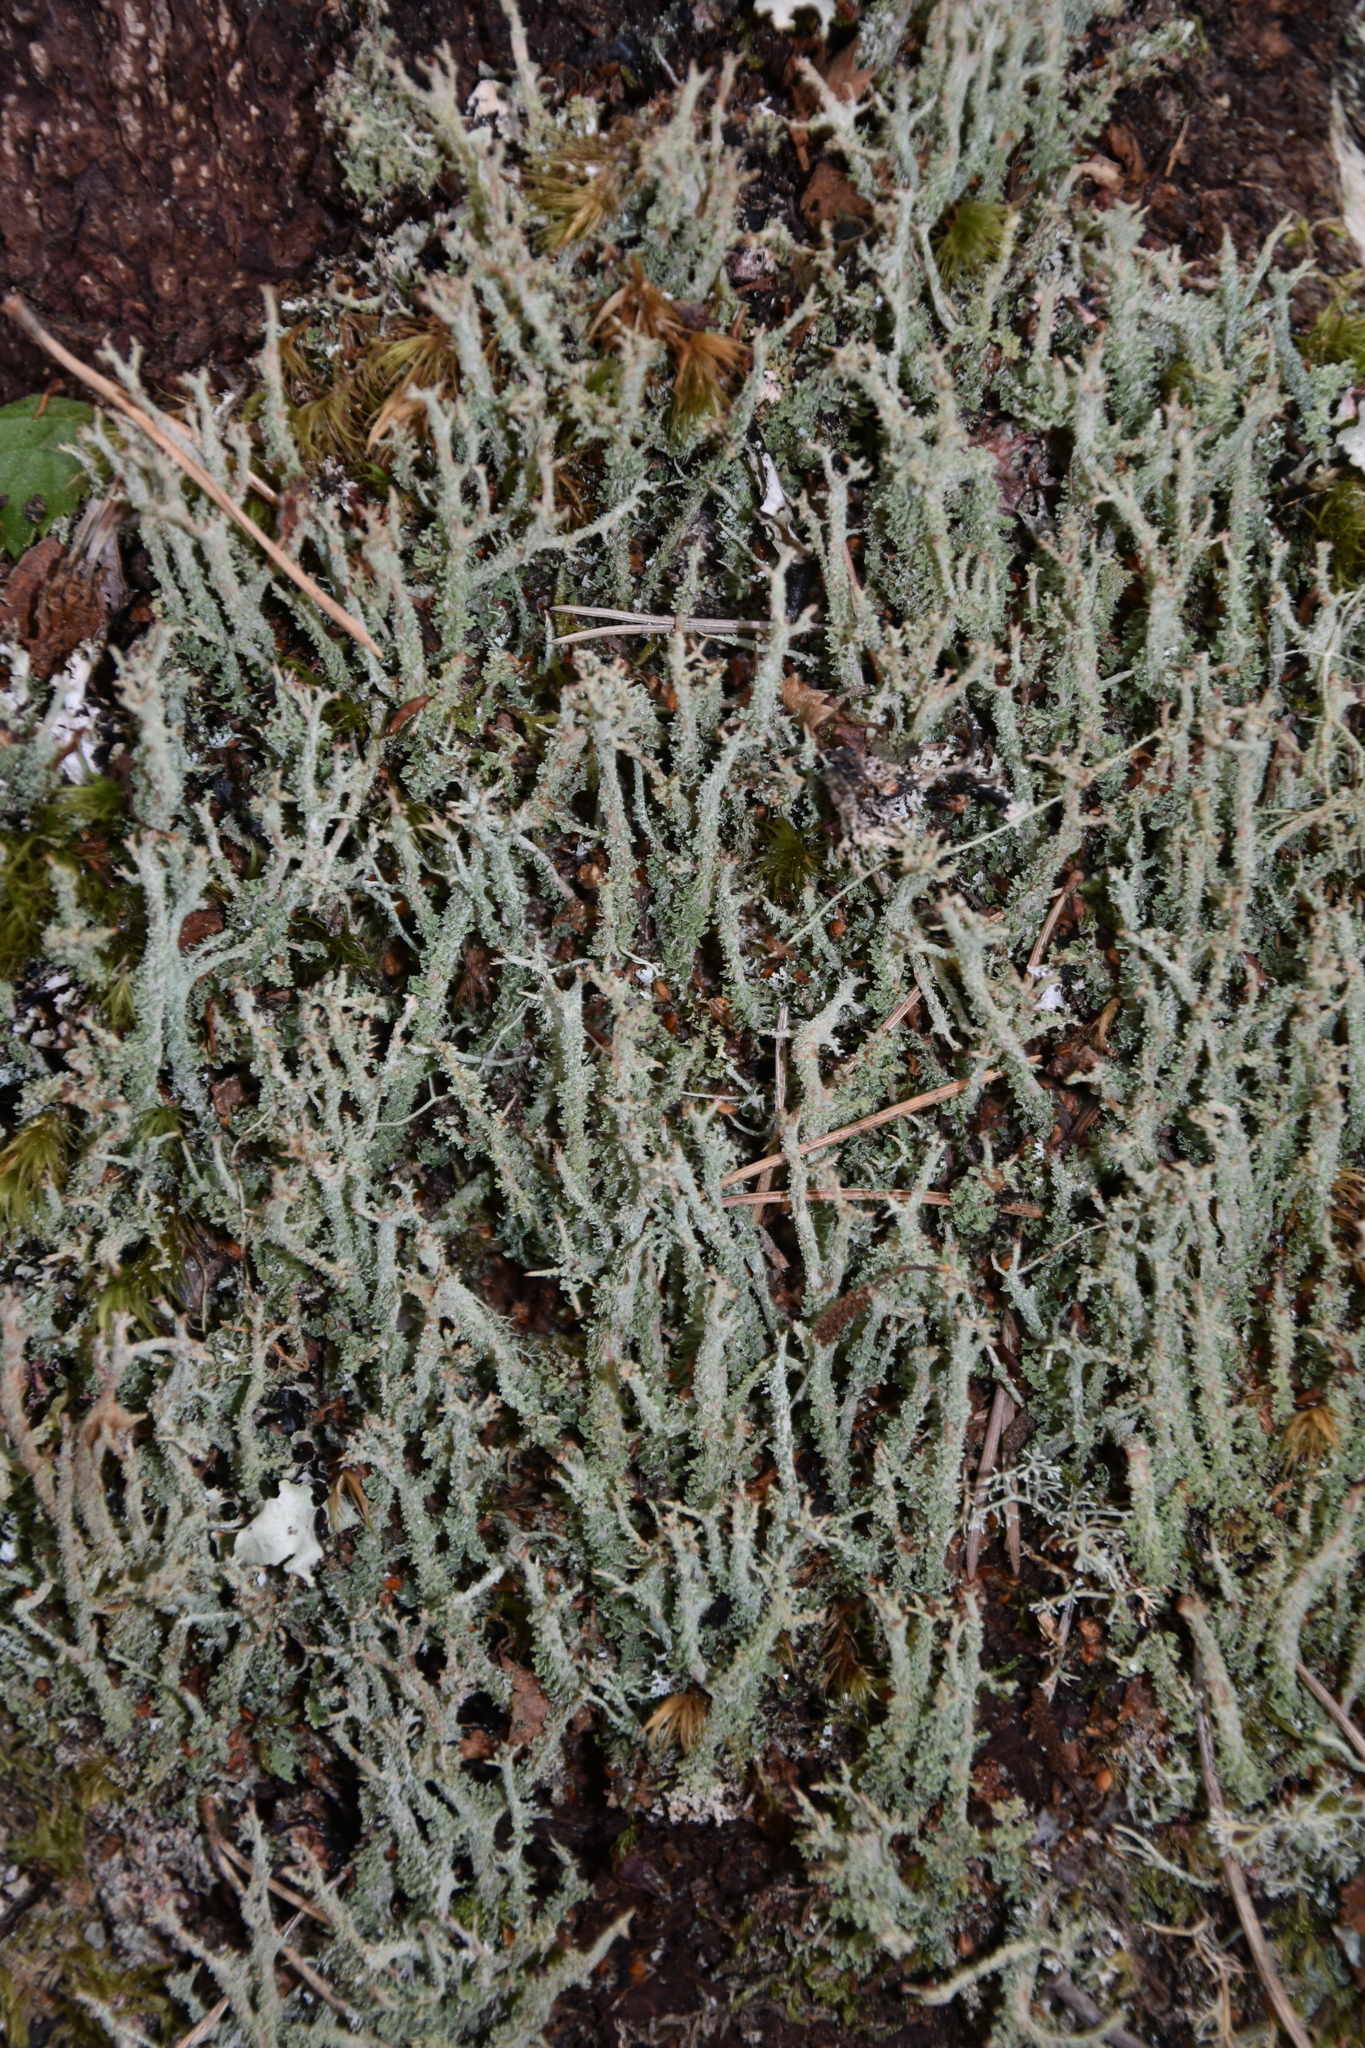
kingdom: Fungi
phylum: Ascomycota
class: Lecanoromycetes
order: Lecanorales
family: Cladoniaceae
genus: Cladonia
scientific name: Cladonia squamosa
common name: Dragon horn
